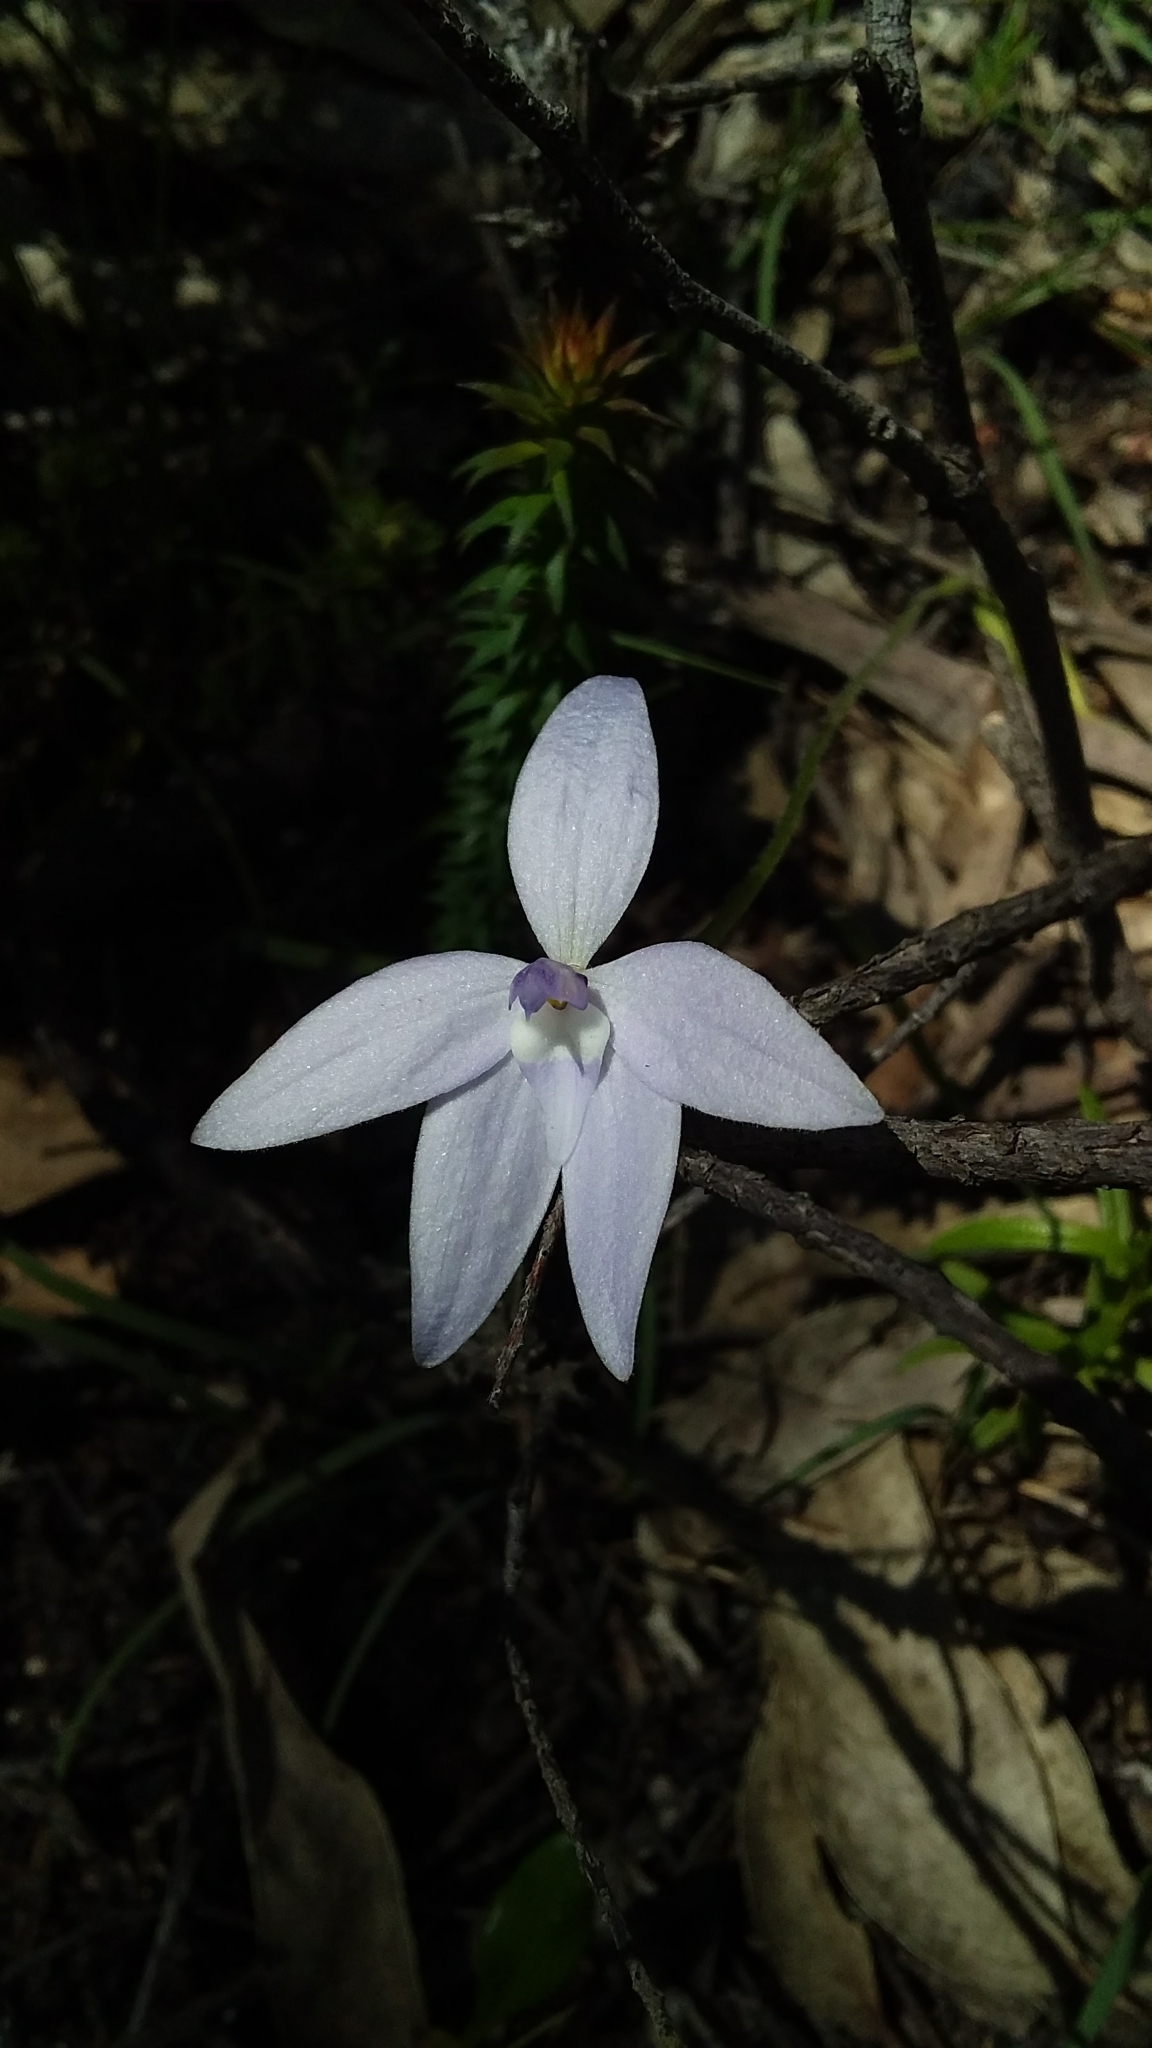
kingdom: Plantae
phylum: Tracheophyta
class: Liliopsida
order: Asparagales
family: Orchidaceae
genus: Caladenia
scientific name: Caladenia major
